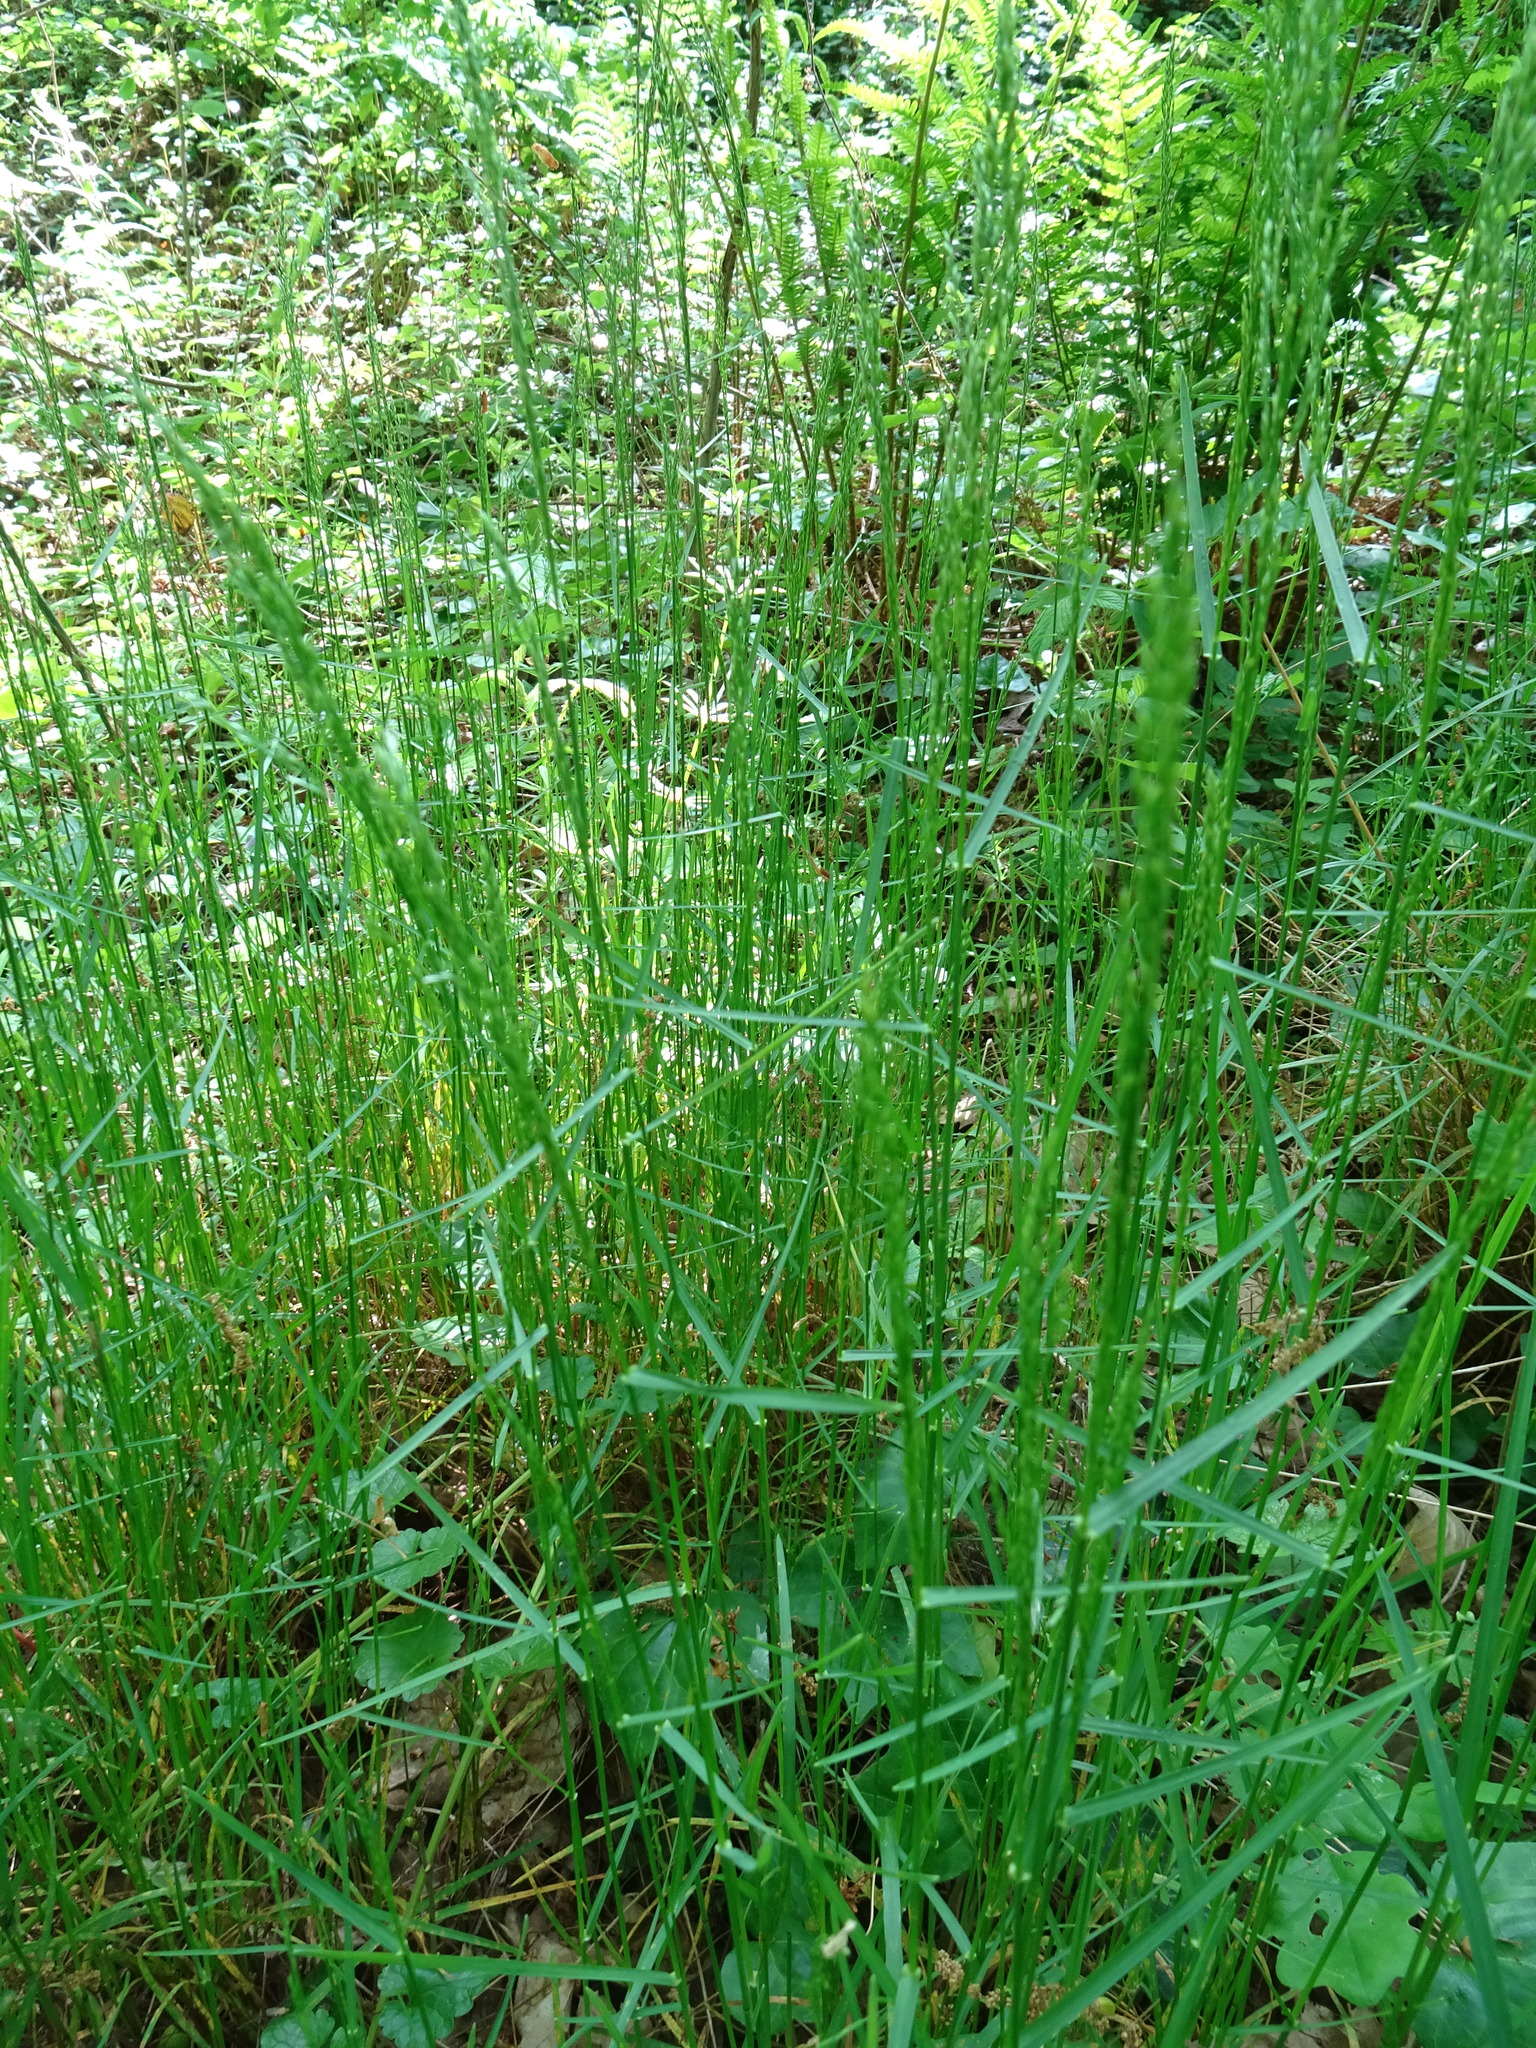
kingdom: Plantae
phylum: Tracheophyta
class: Liliopsida
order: Poales
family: Poaceae
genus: Poa
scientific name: Poa nemoralis
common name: Wood bluegrass
